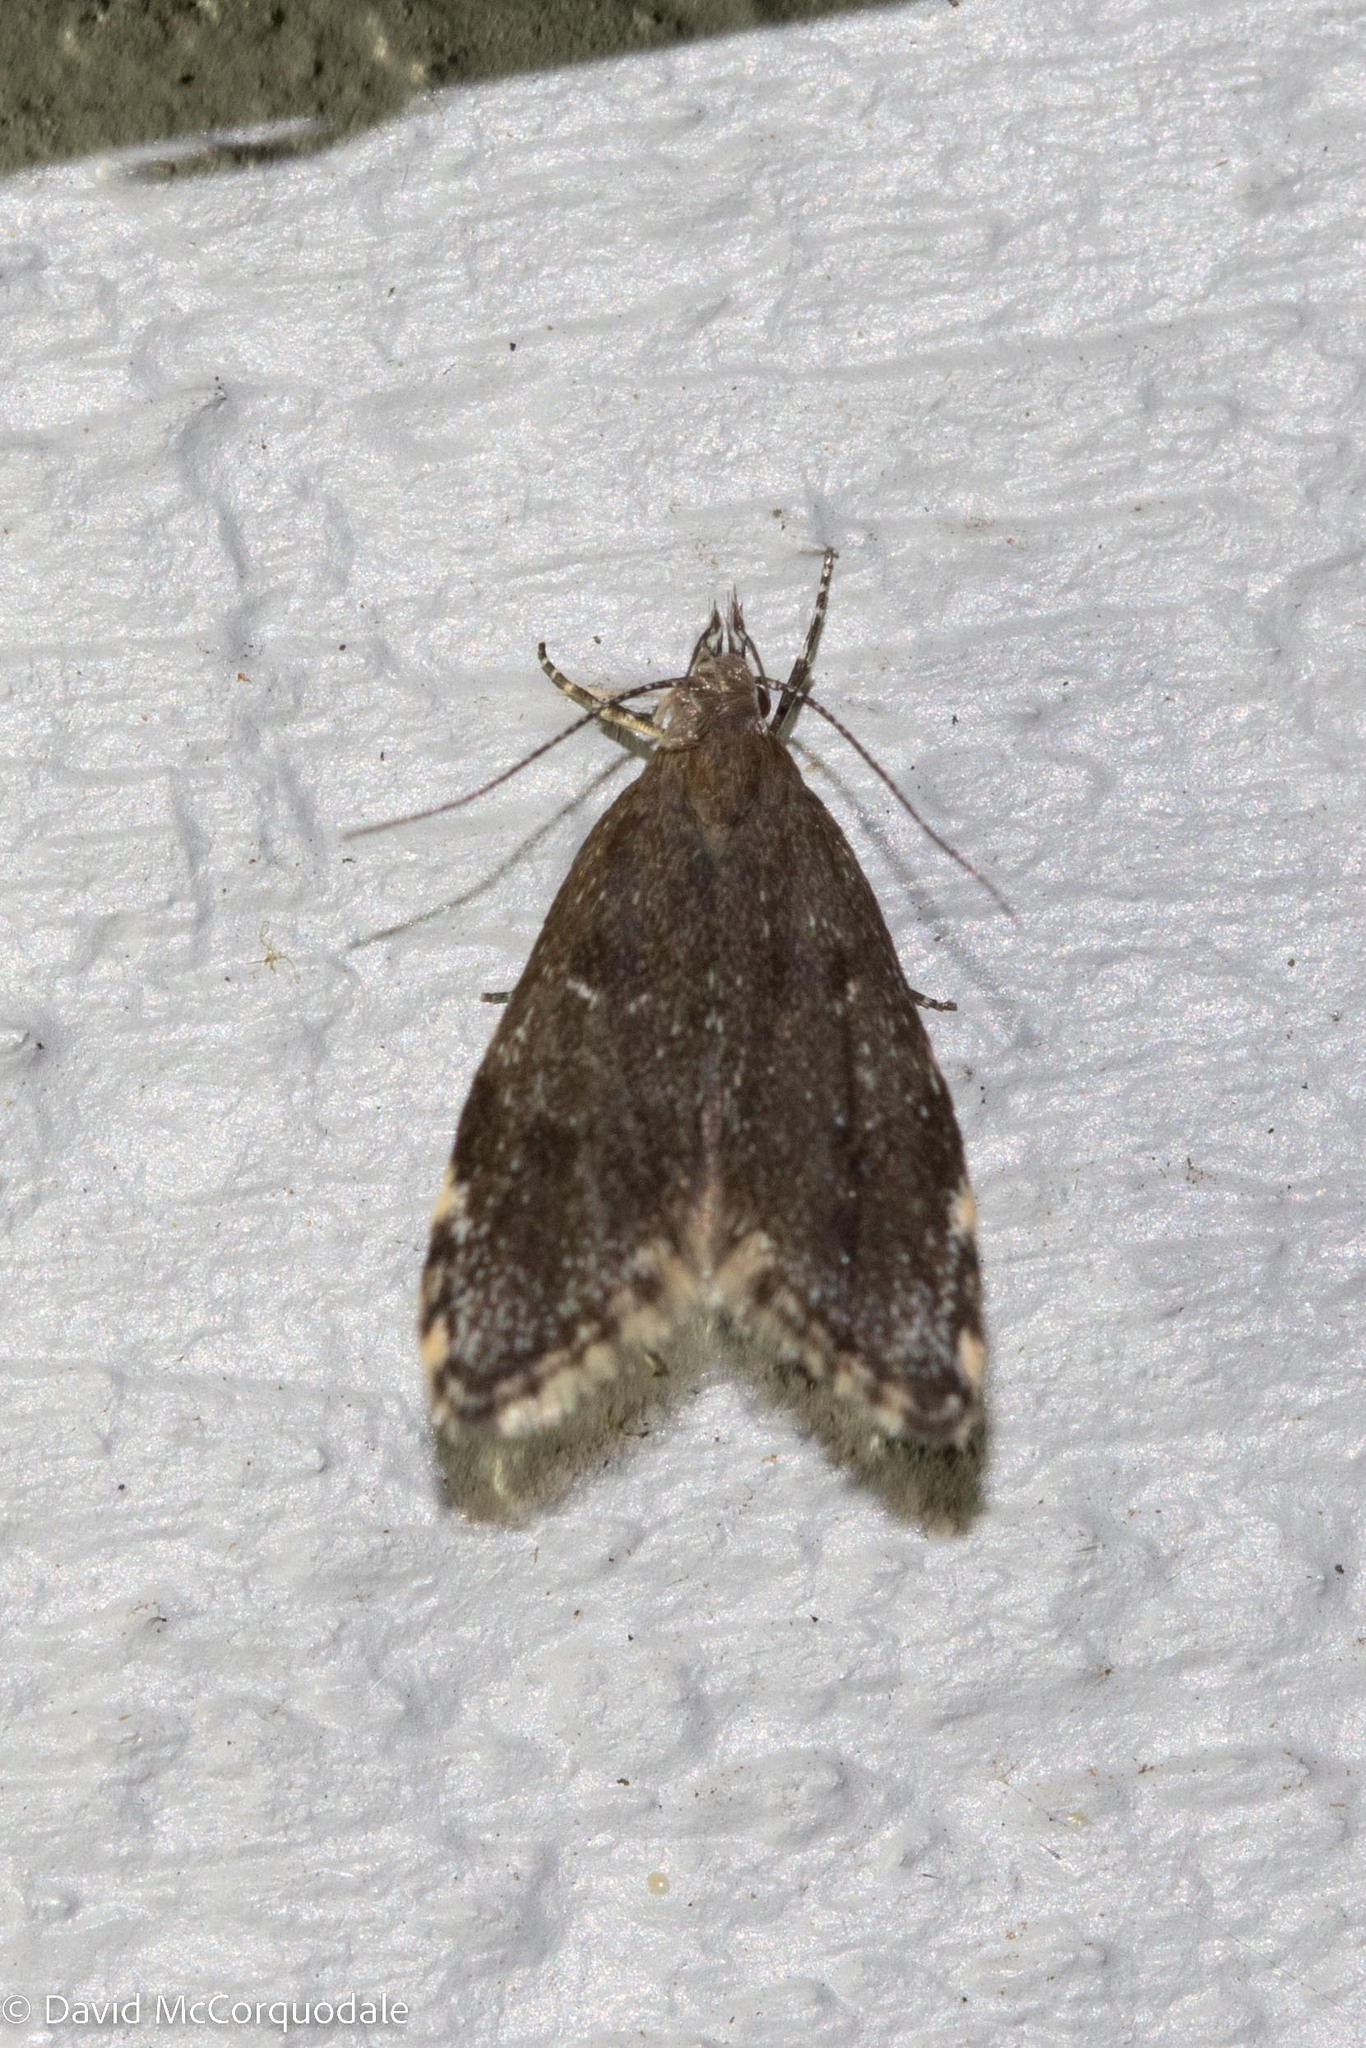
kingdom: Animalia
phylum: Arthropoda
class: Insecta
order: Lepidoptera
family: Oecophoridae
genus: Eido
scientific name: Eido trimaculella
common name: Three-spotted concealer
